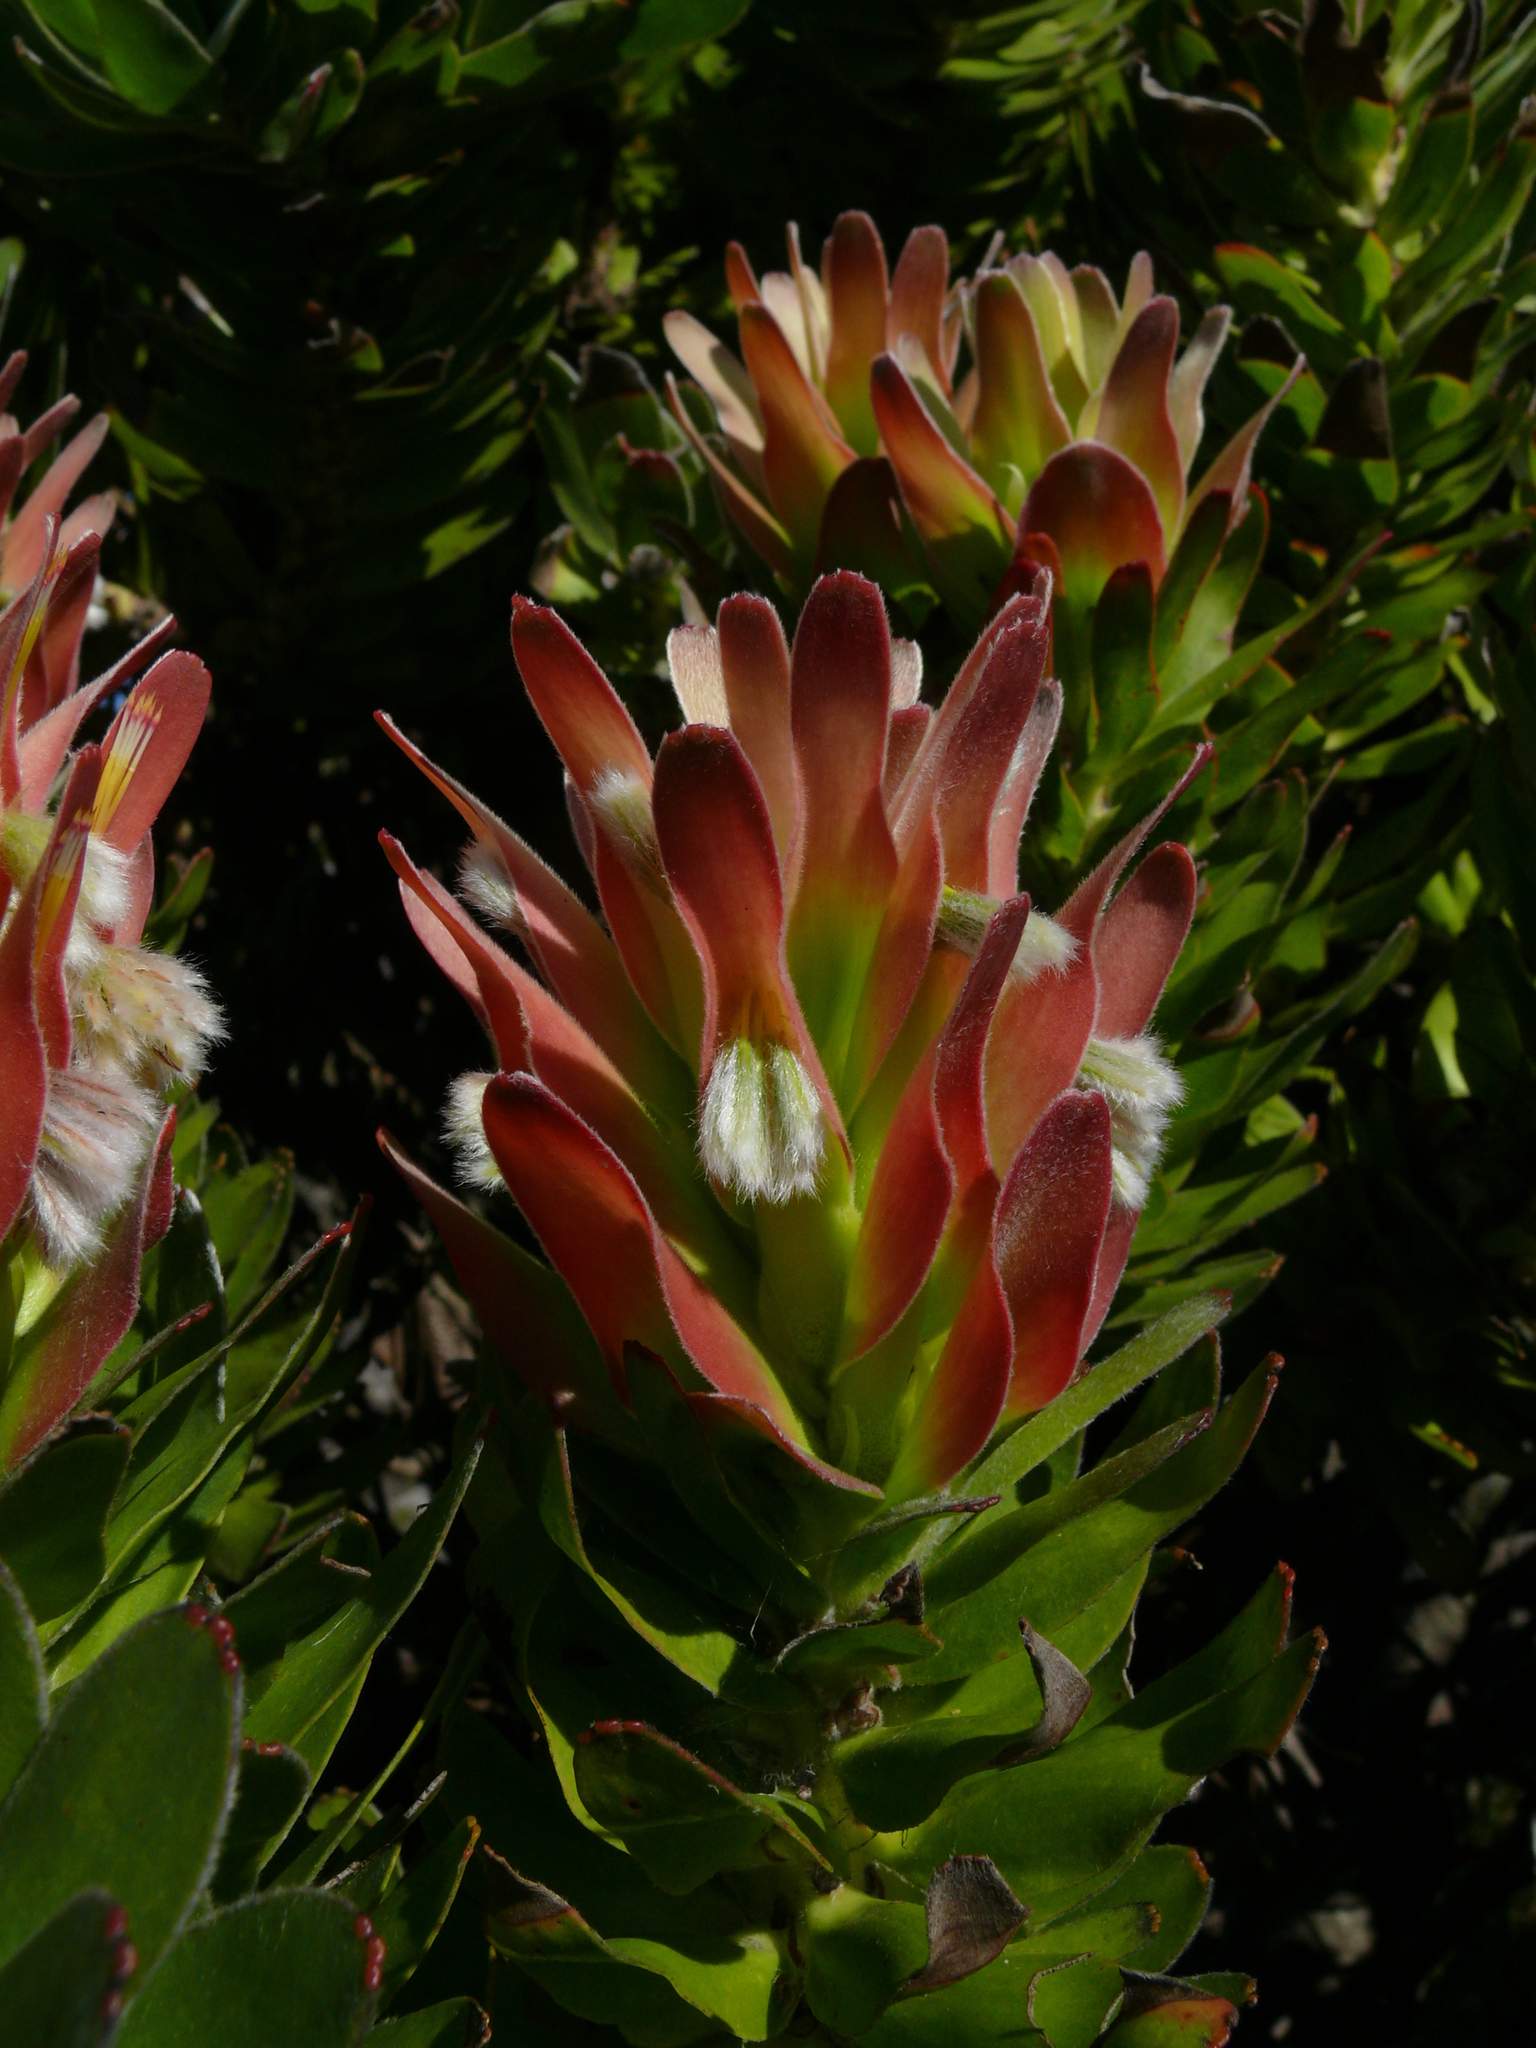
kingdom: Plantae
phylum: Tracheophyta
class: Magnoliopsida
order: Proteales
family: Proteaceae
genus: Mimetes
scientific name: Mimetes fimbriifolius
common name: Fringed bottlebrush
